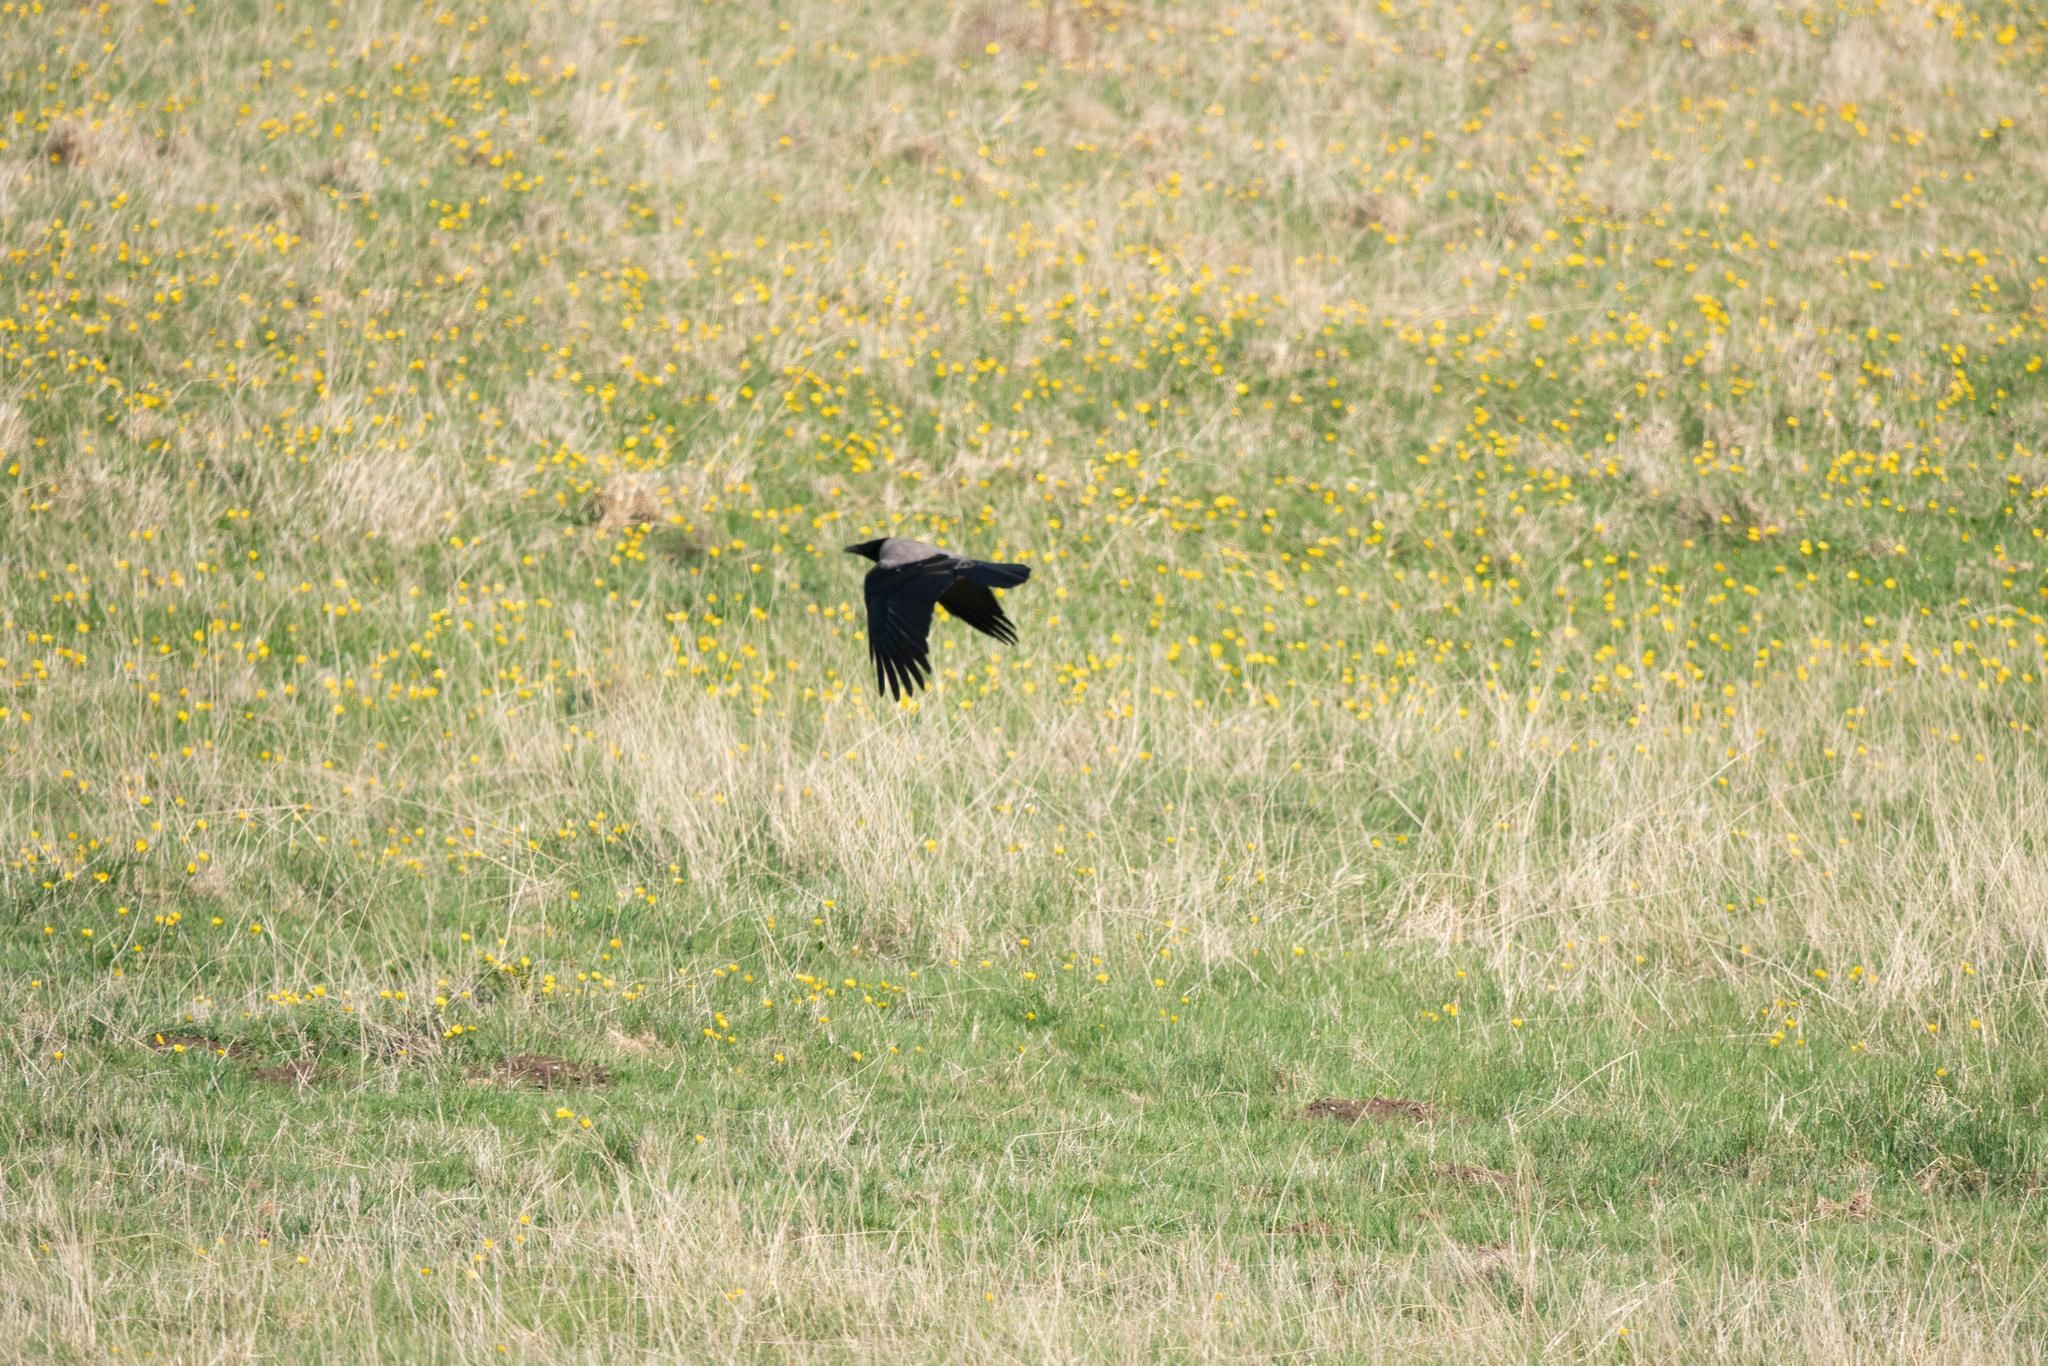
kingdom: Animalia
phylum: Chordata
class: Aves
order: Passeriformes
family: Corvidae
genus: Corvus
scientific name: Corvus cornix
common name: Hooded crow
